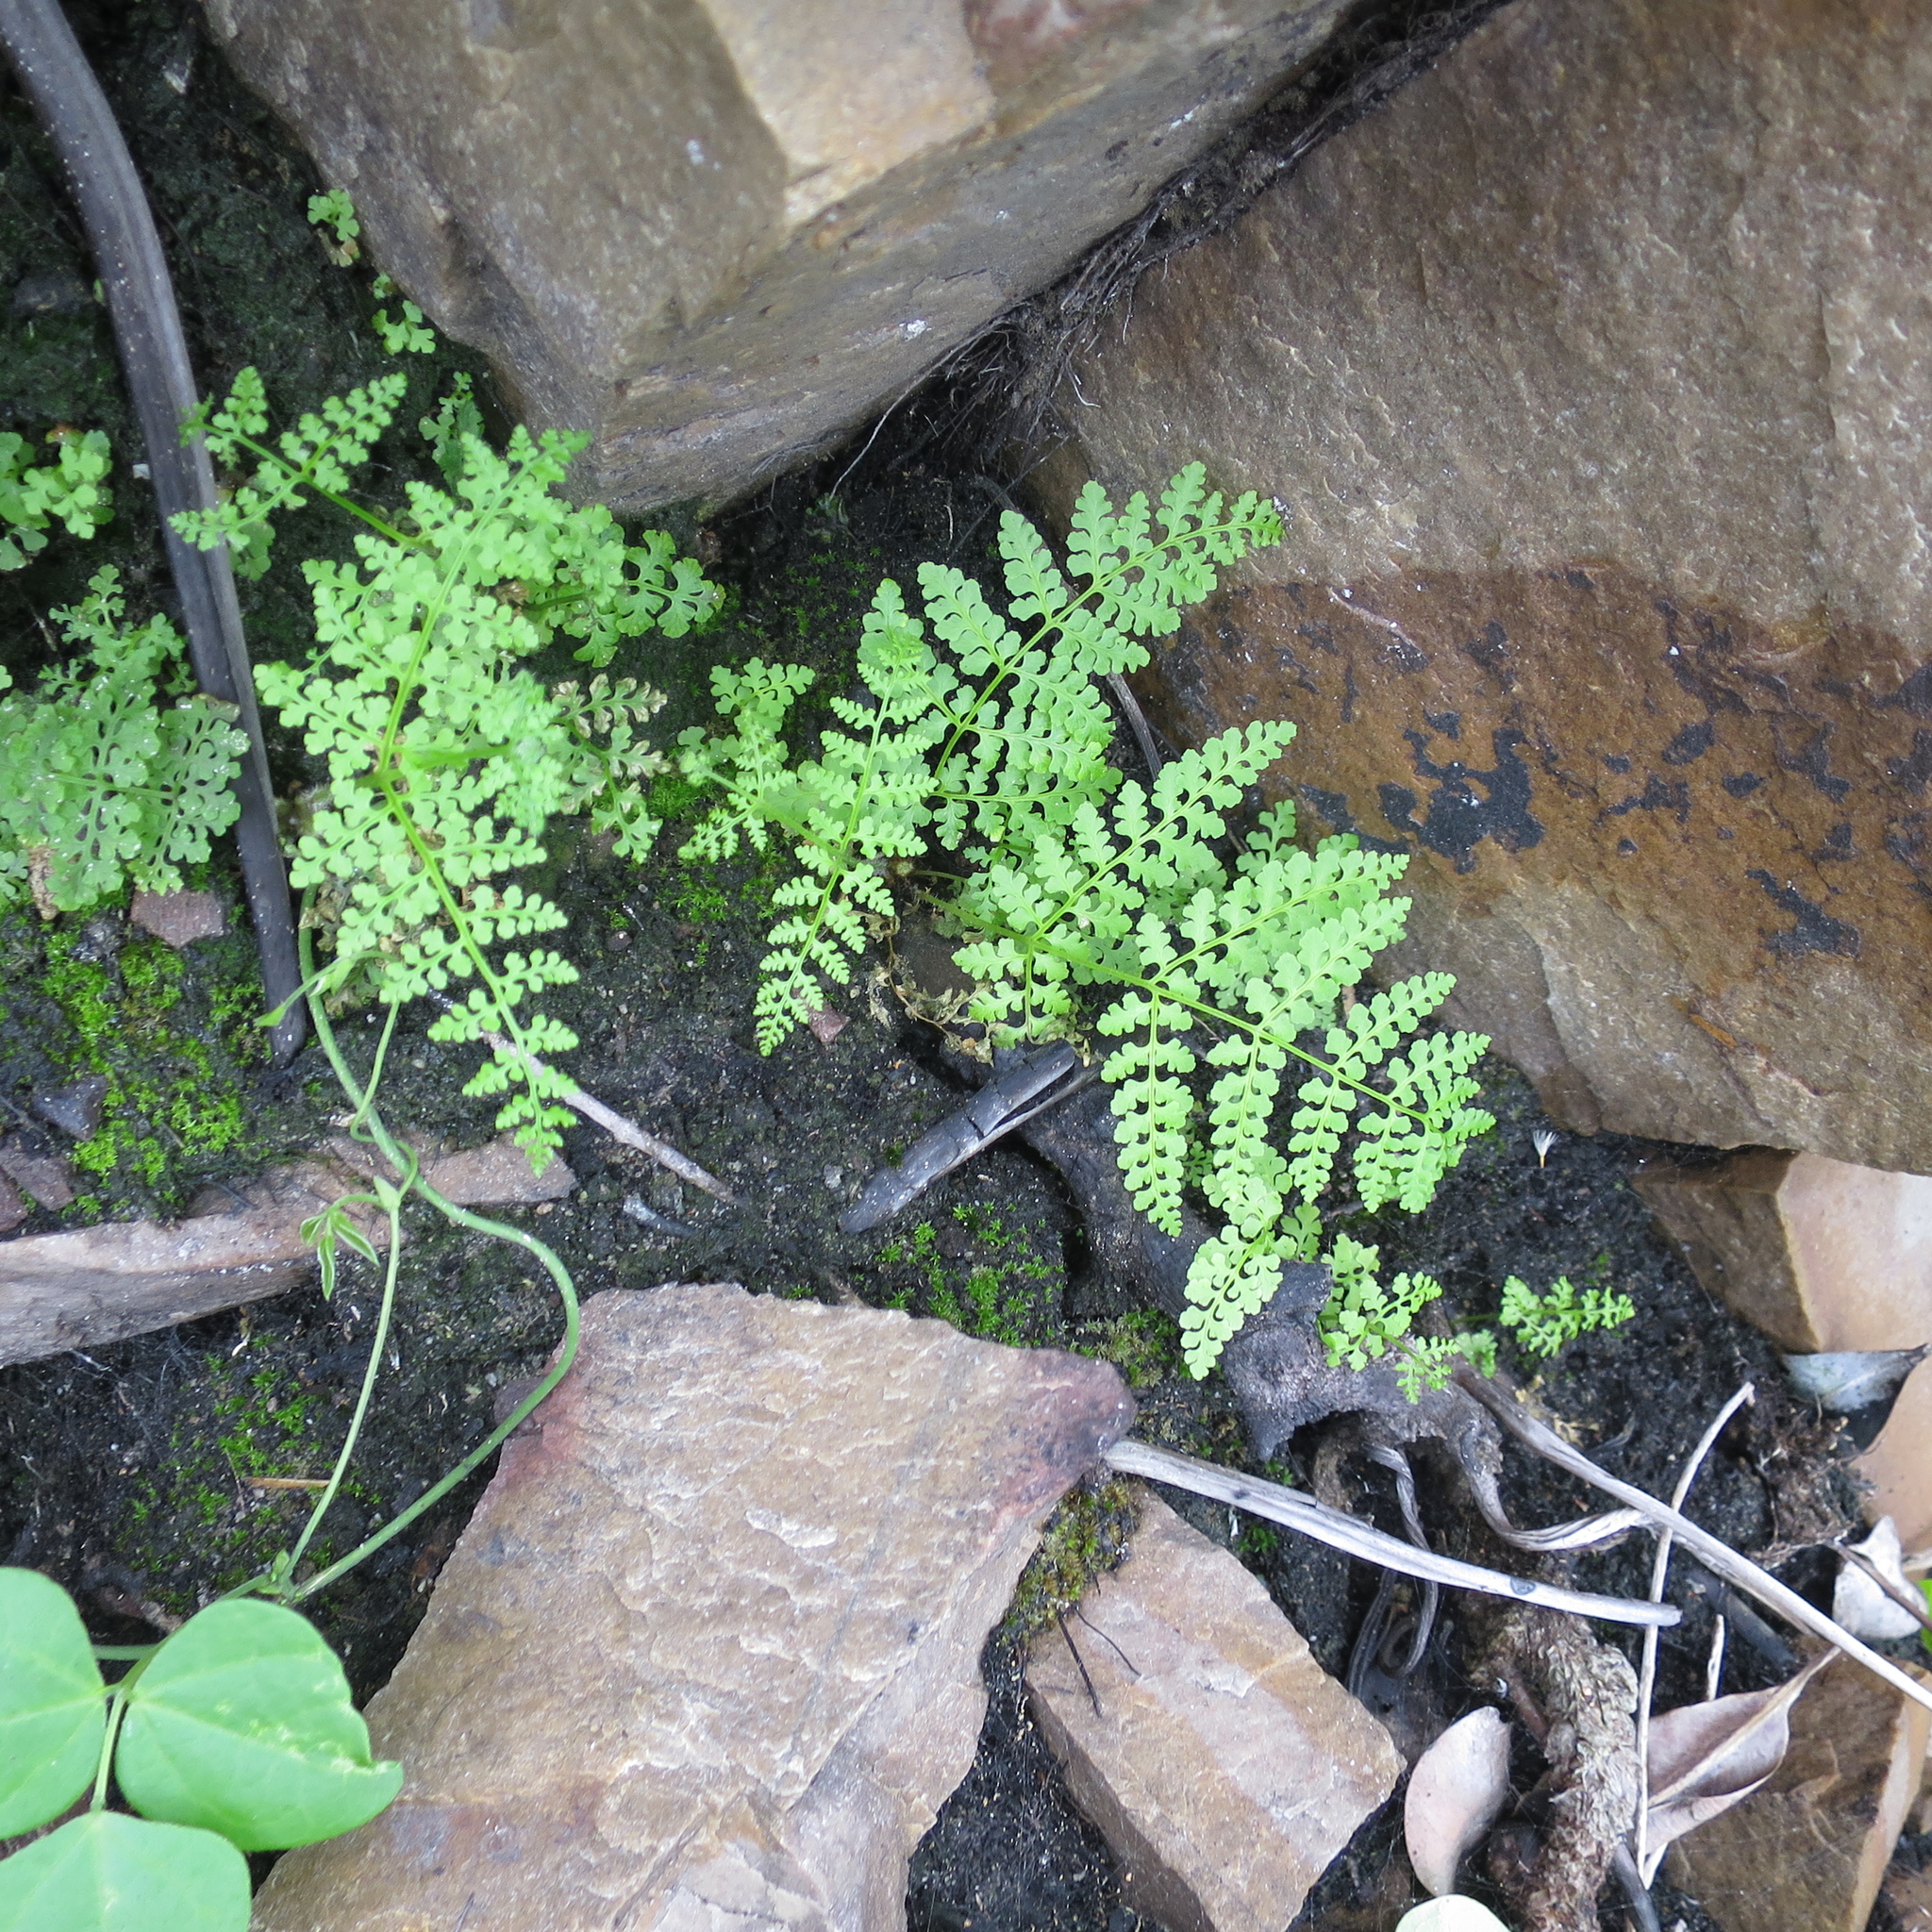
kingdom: Plantae
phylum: Tracheophyta
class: Polypodiopsida
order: Polypodiales
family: Dennstaedtiaceae
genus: Hypolepis
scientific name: Hypolepis sparsisora
